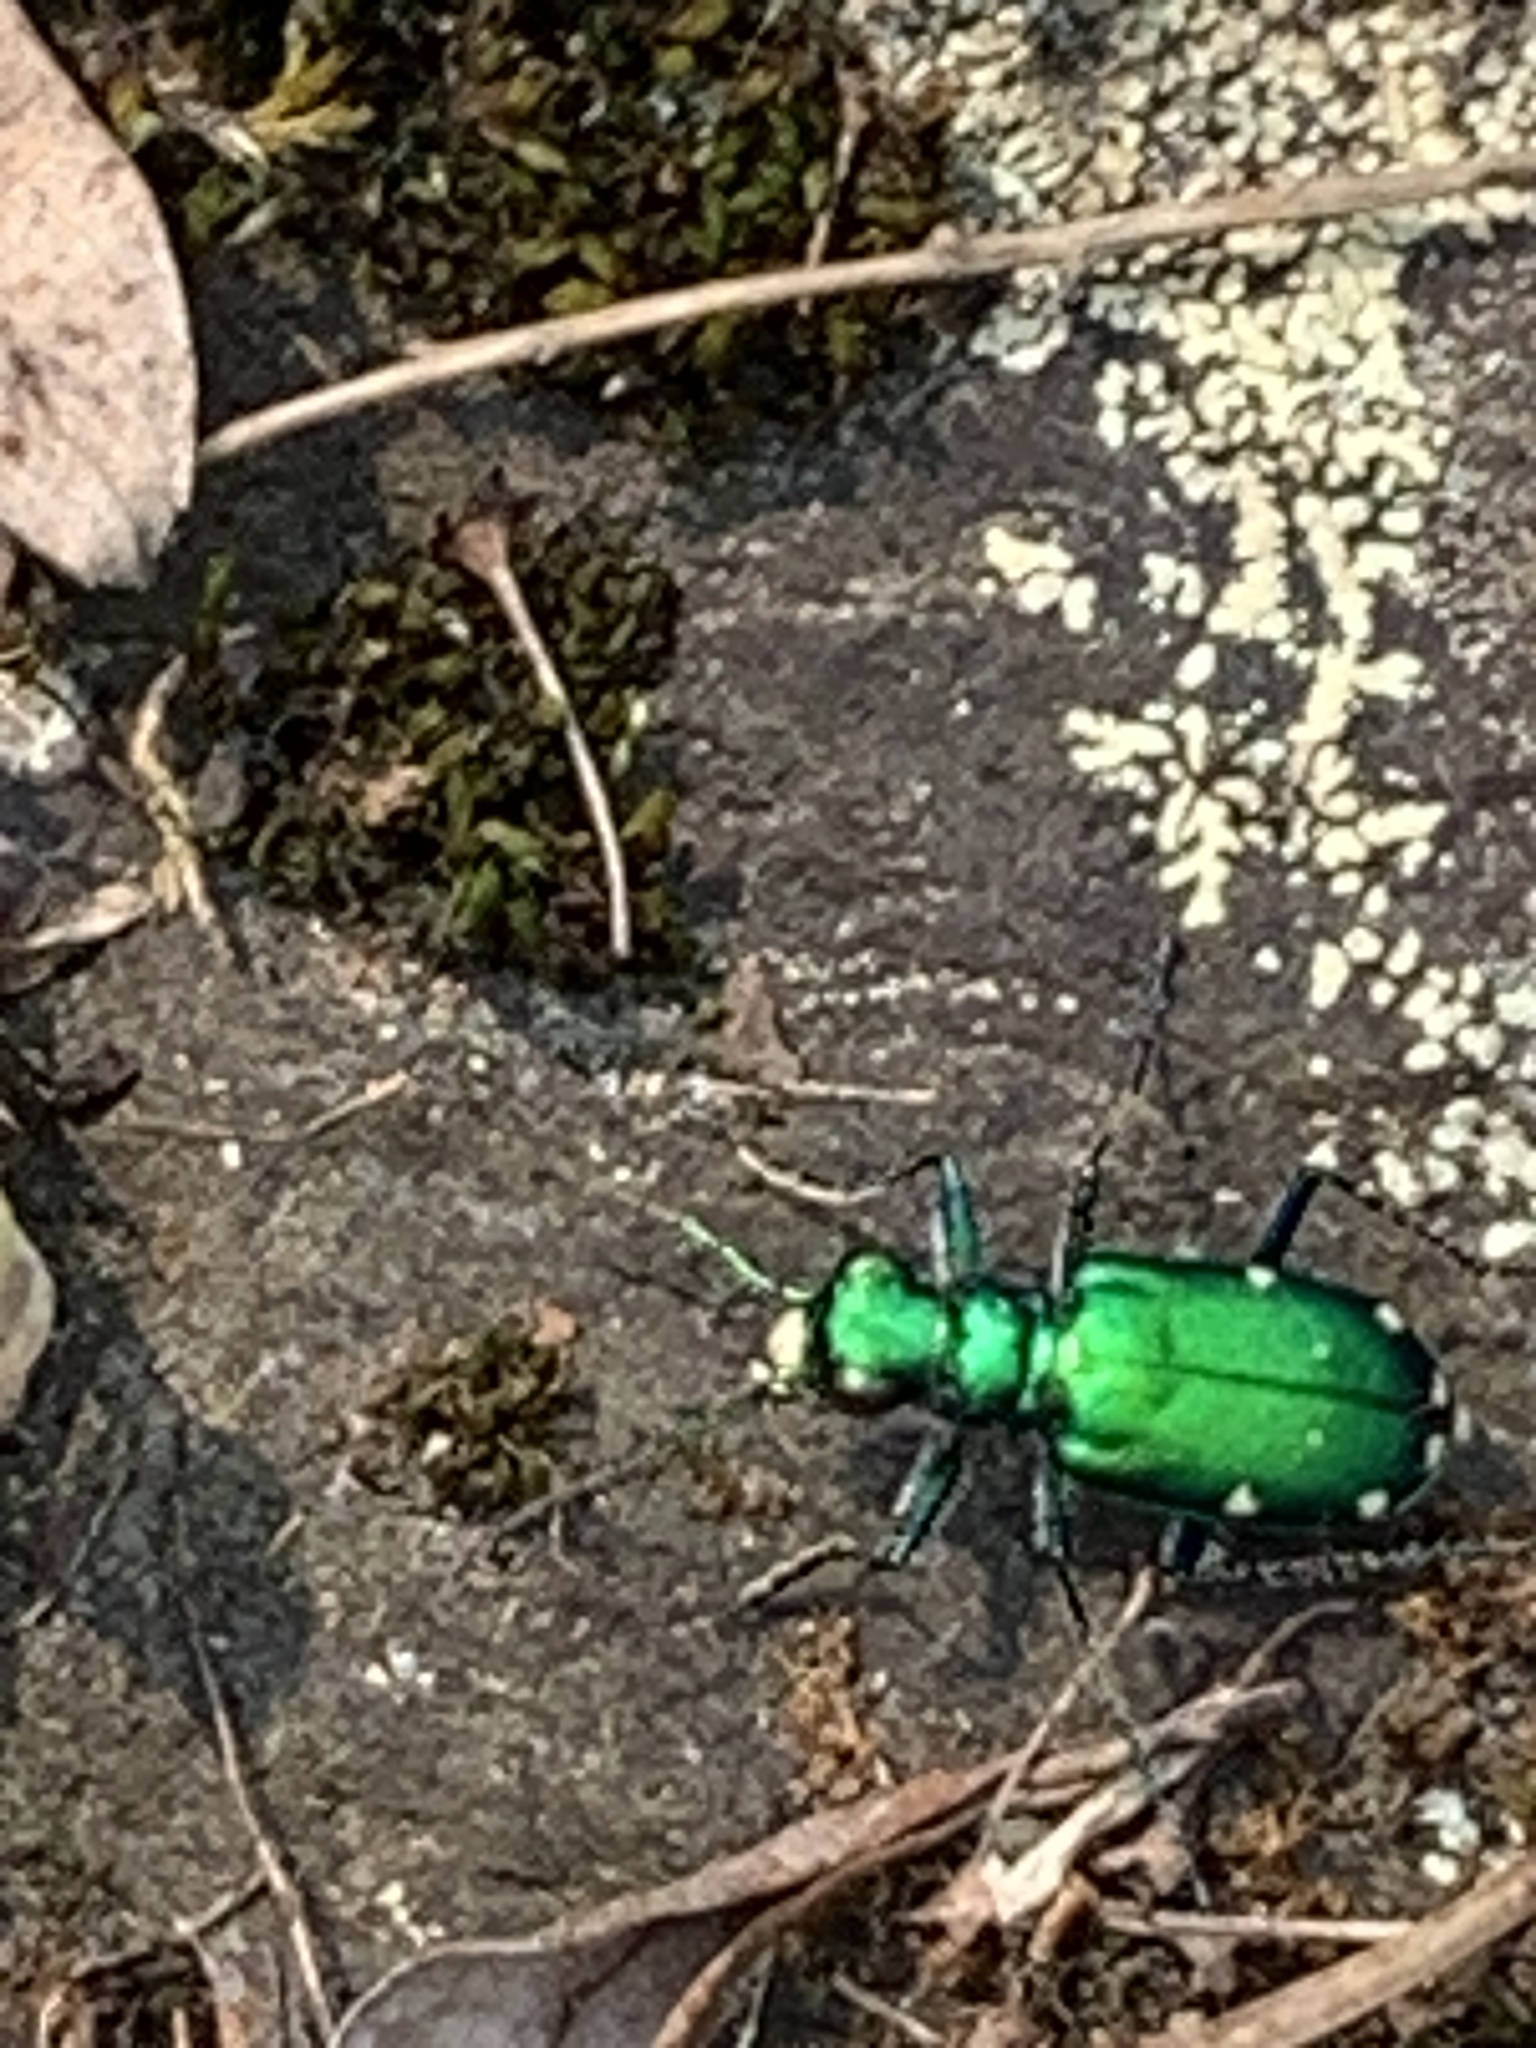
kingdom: Animalia
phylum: Arthropoda
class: Insecta
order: Coleoptera
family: Carabidae
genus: Cicindela
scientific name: Cicindela sexguttata
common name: Six-spotted tiger beetle
